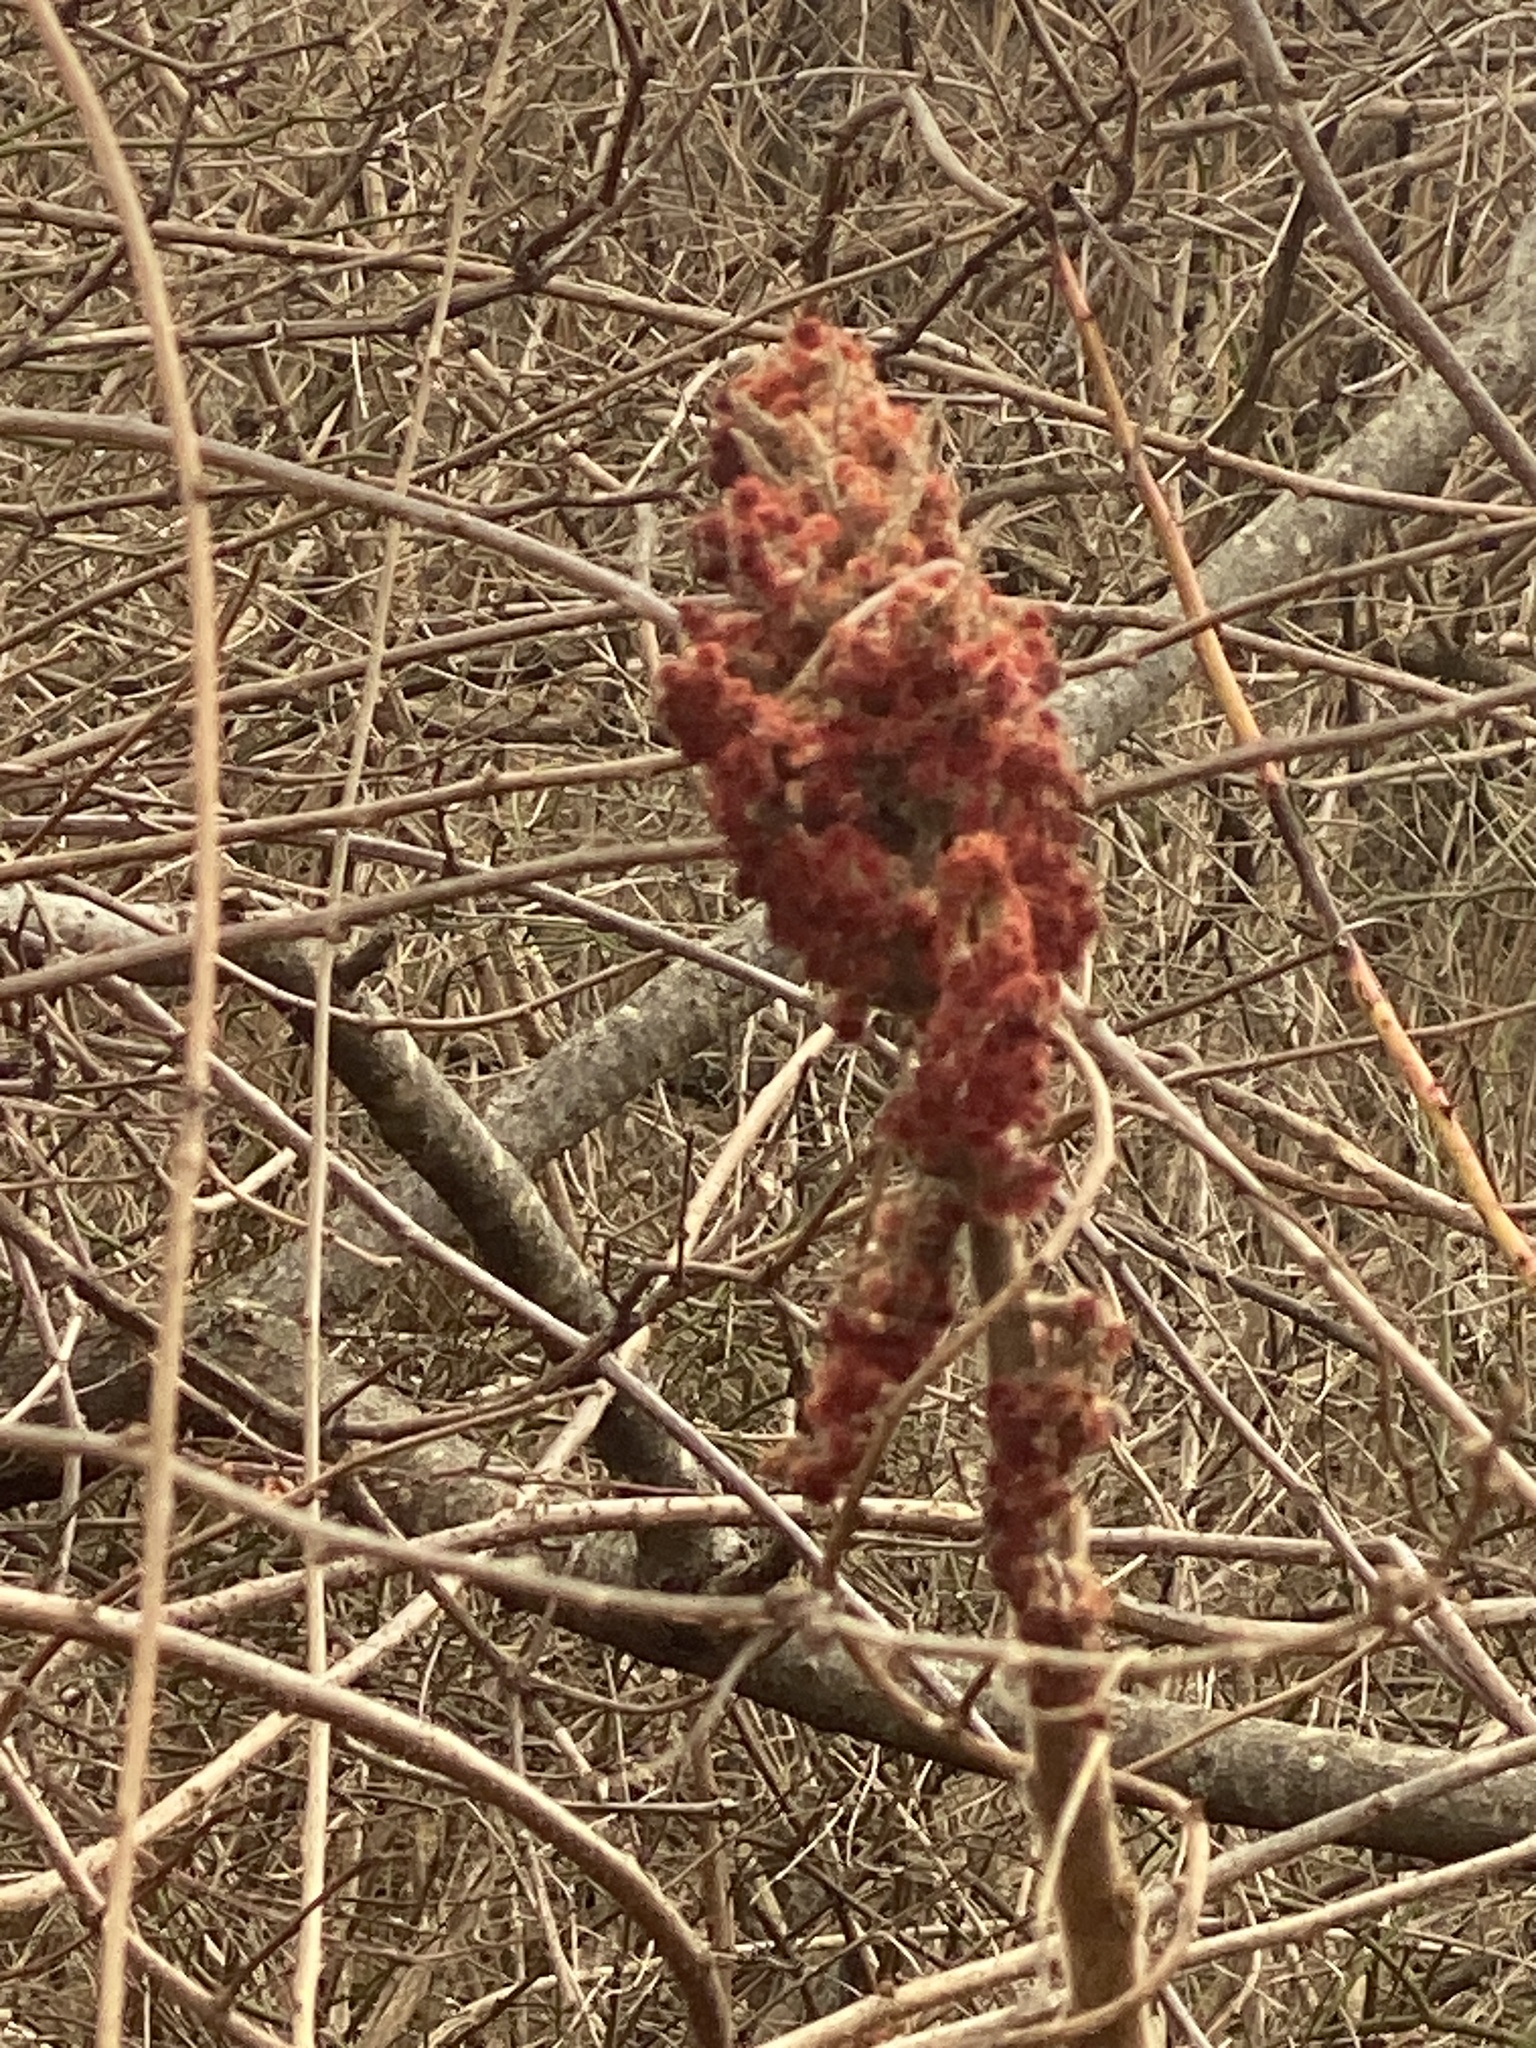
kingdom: Plantae
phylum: Tracheophyta
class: Magnoliopsida
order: Sapindales
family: Anacardiaceae
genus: Rhus
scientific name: Rhus typhina
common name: Staghorn sumac
